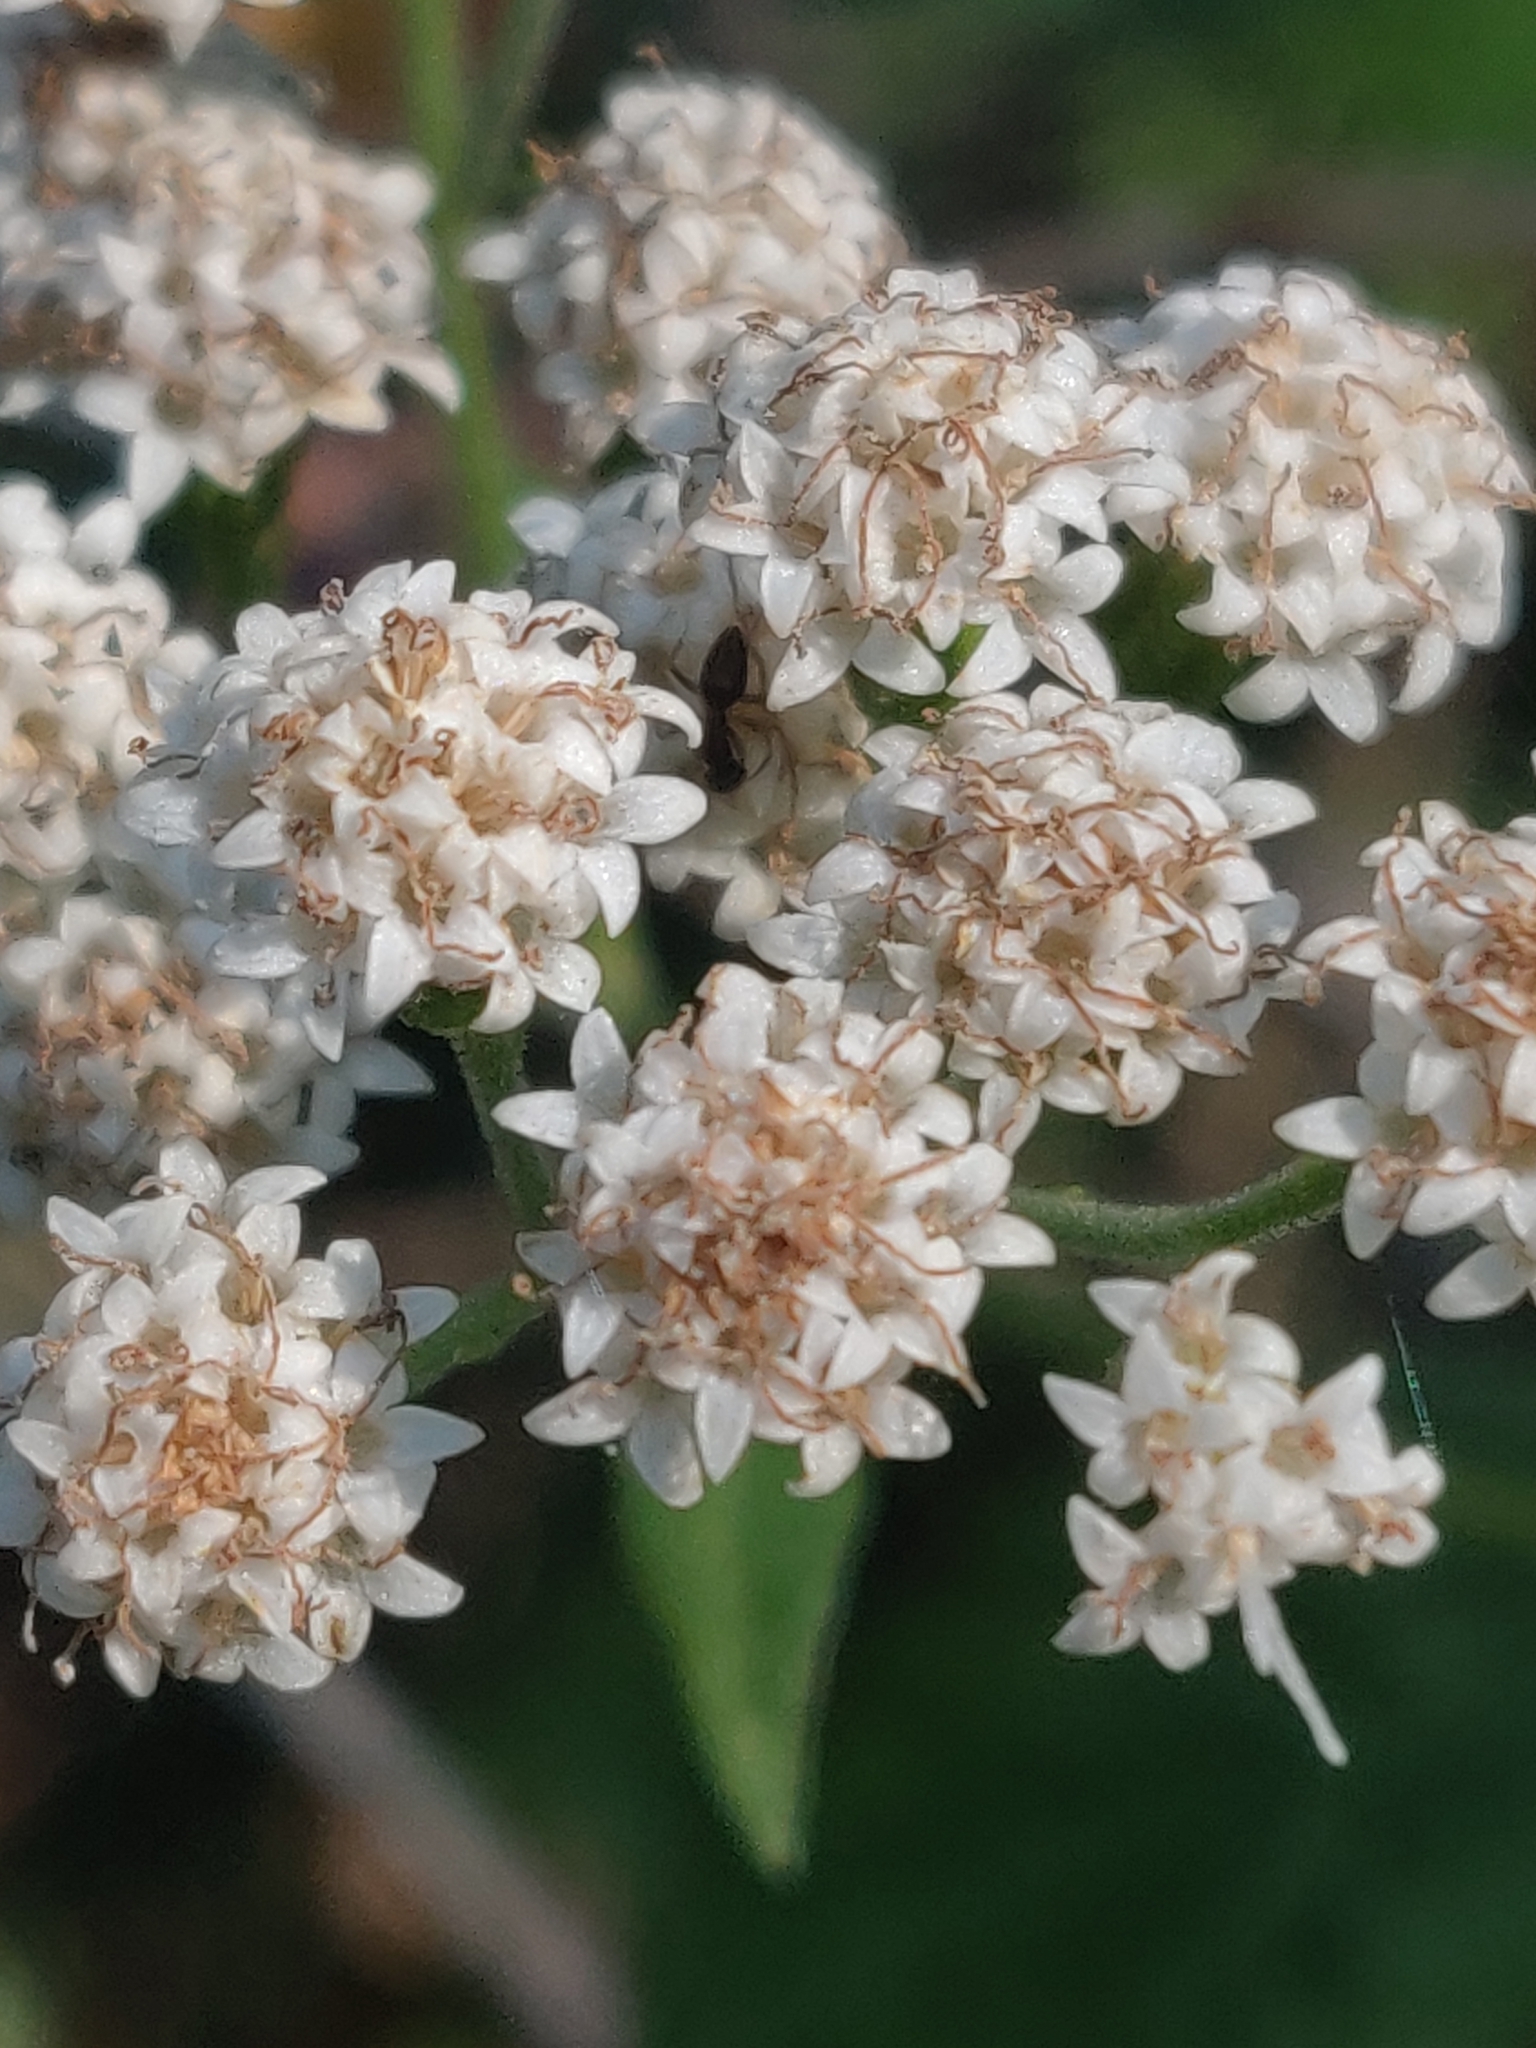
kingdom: Plantae
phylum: Tracheophyta
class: Magnoliopsida
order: Asterales
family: Asteraceae
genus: Ageratina
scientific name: Ageratina altissima
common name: White snakeroot
